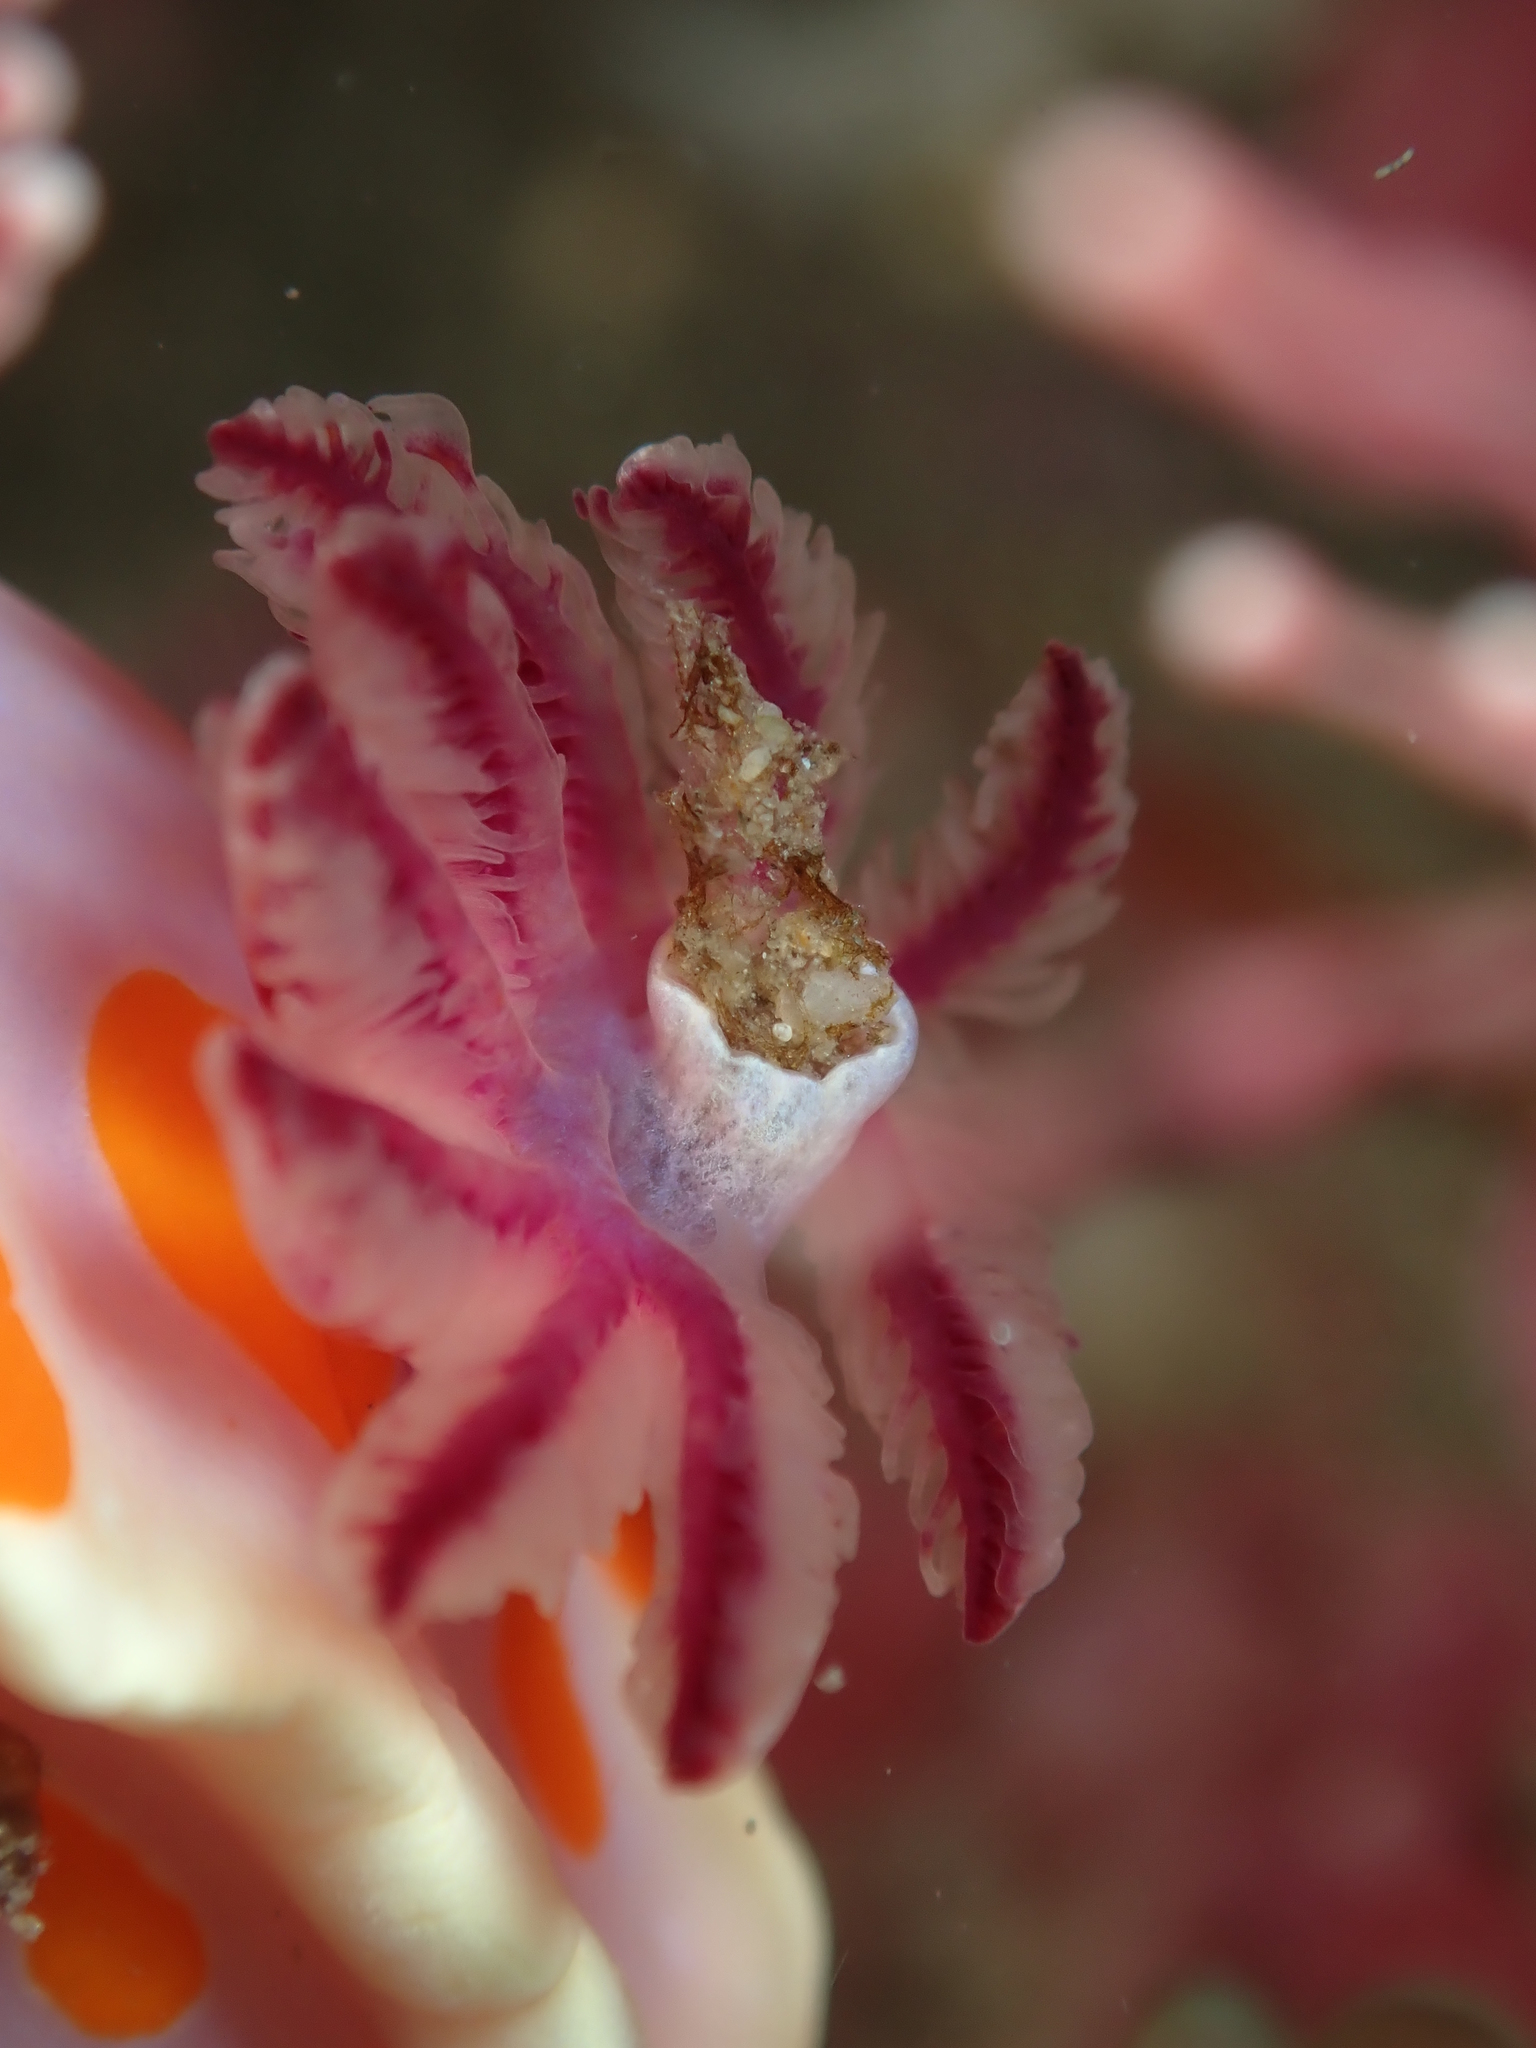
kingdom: Animalia
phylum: Mollusca
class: Gastropoda
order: Nudibranchia
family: Chromodorididae
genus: Ceratosoma
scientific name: Ceratosoma amoenum
